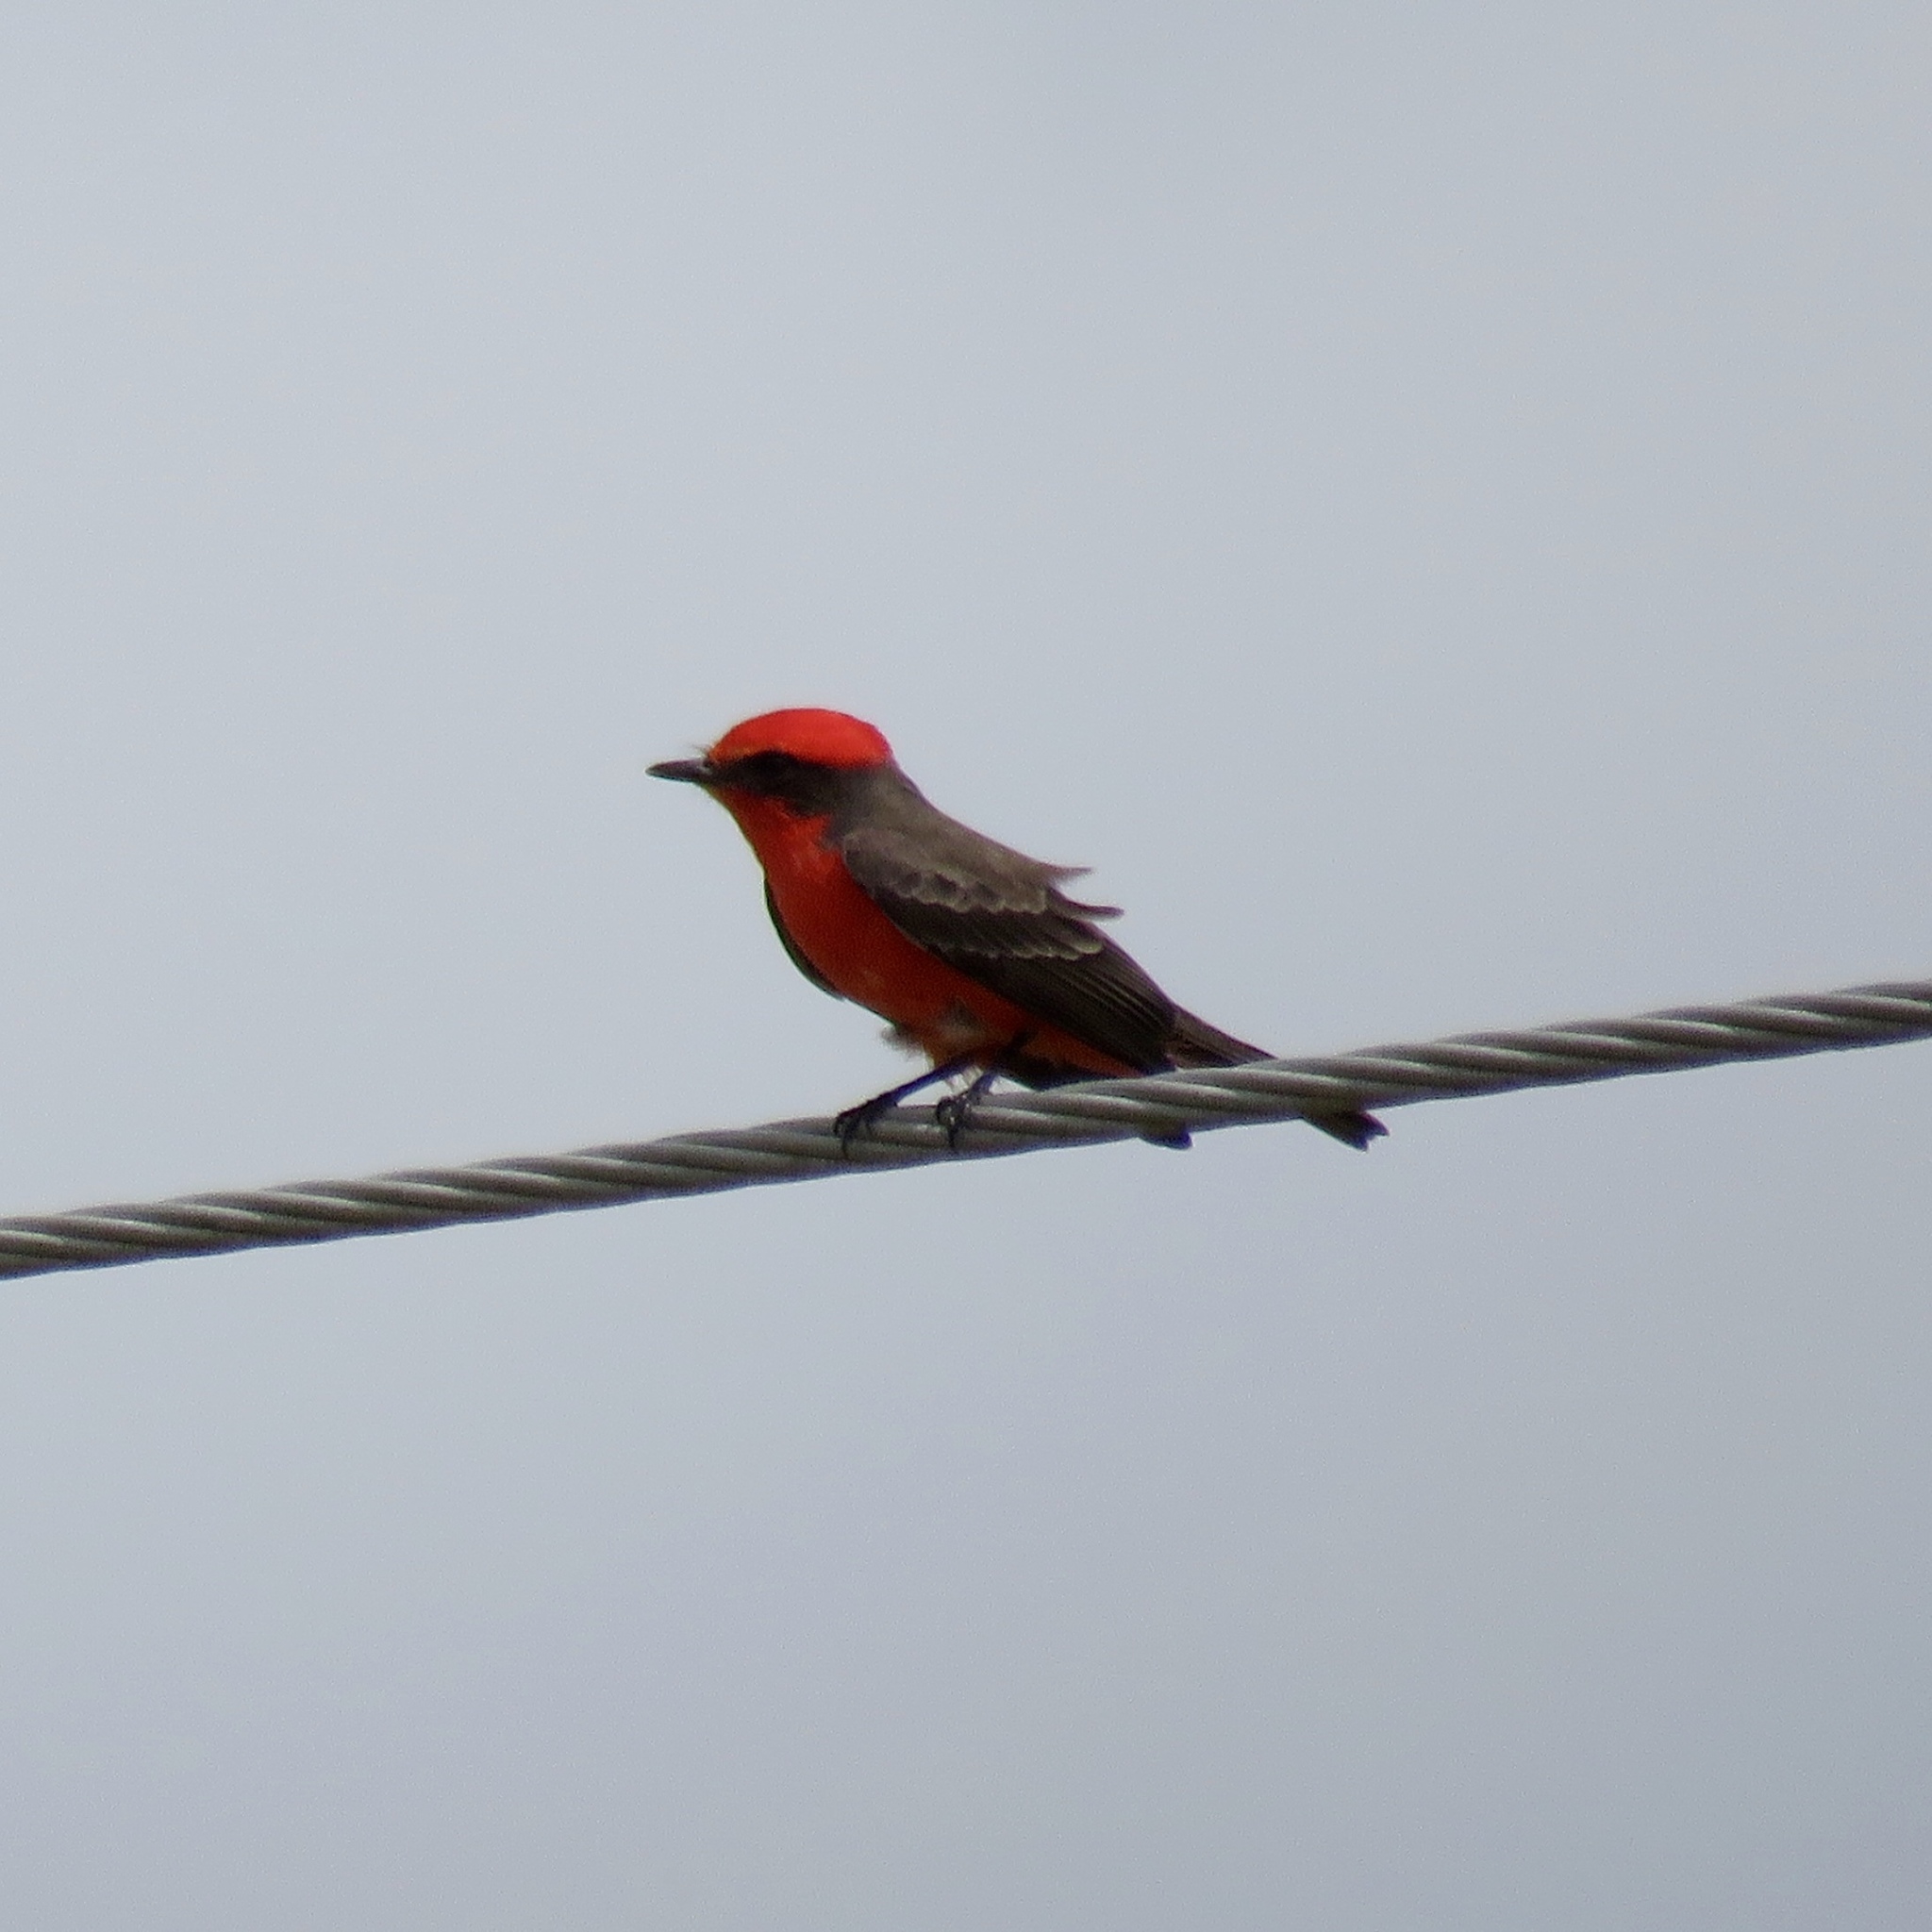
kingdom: Animalia
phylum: Chordata
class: Aves
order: Passeriformes
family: Tyrannidae
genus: Pyrocephalus
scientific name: Pyrocephalus rubinus
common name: Vermilion flycatcher
